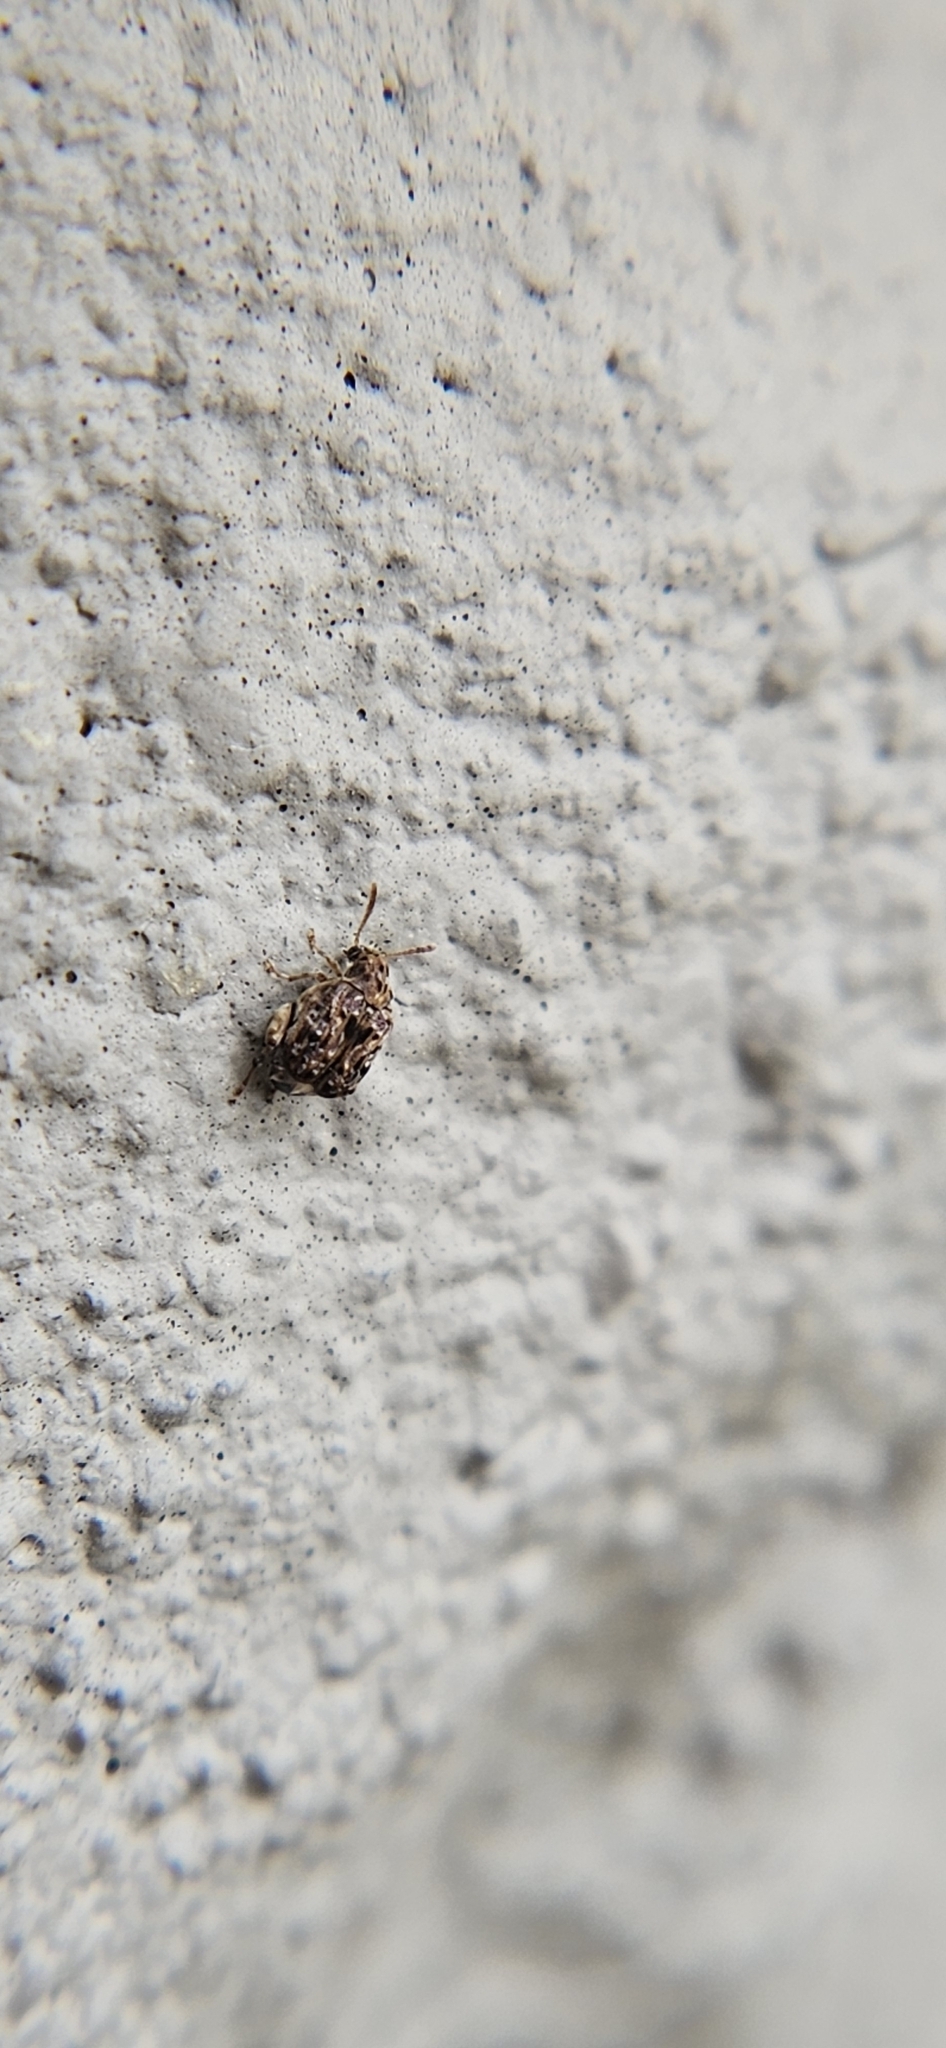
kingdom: Animalia
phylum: Arthropoda
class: Insecta
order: Coleoptera
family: Chrysomelidae
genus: Gibbobruchus
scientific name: Gibbobruchus mimus
